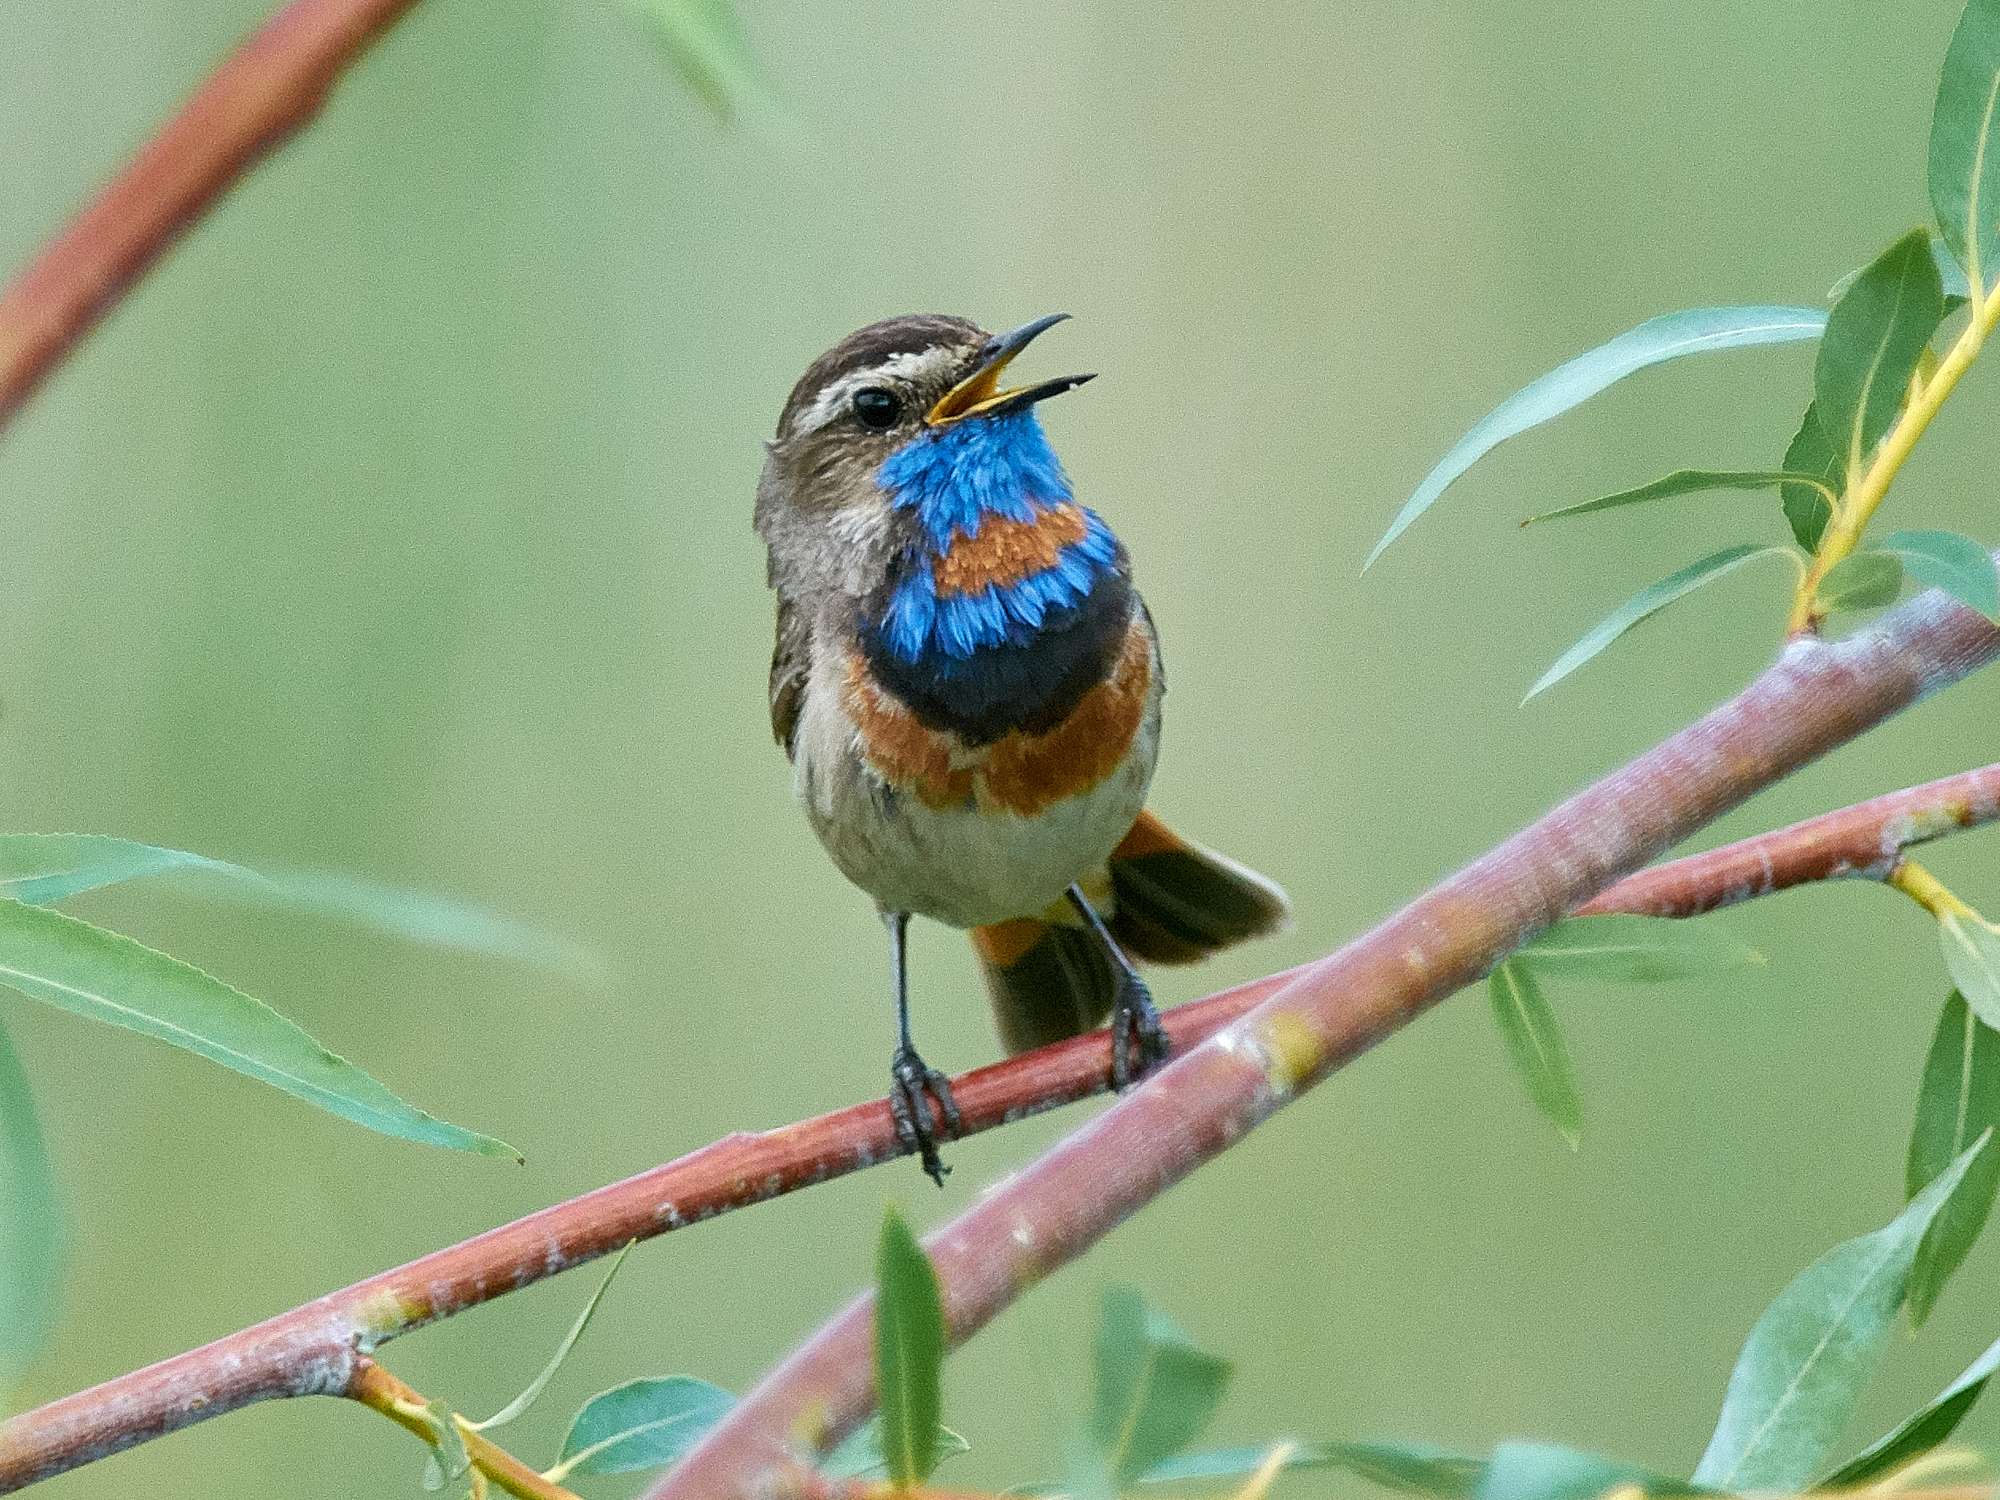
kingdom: Animalia
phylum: Chordata
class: Aves
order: Passeriformes
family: Muscicapidae
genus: Luscinia
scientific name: Luscinia svecica
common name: Bluethroat
